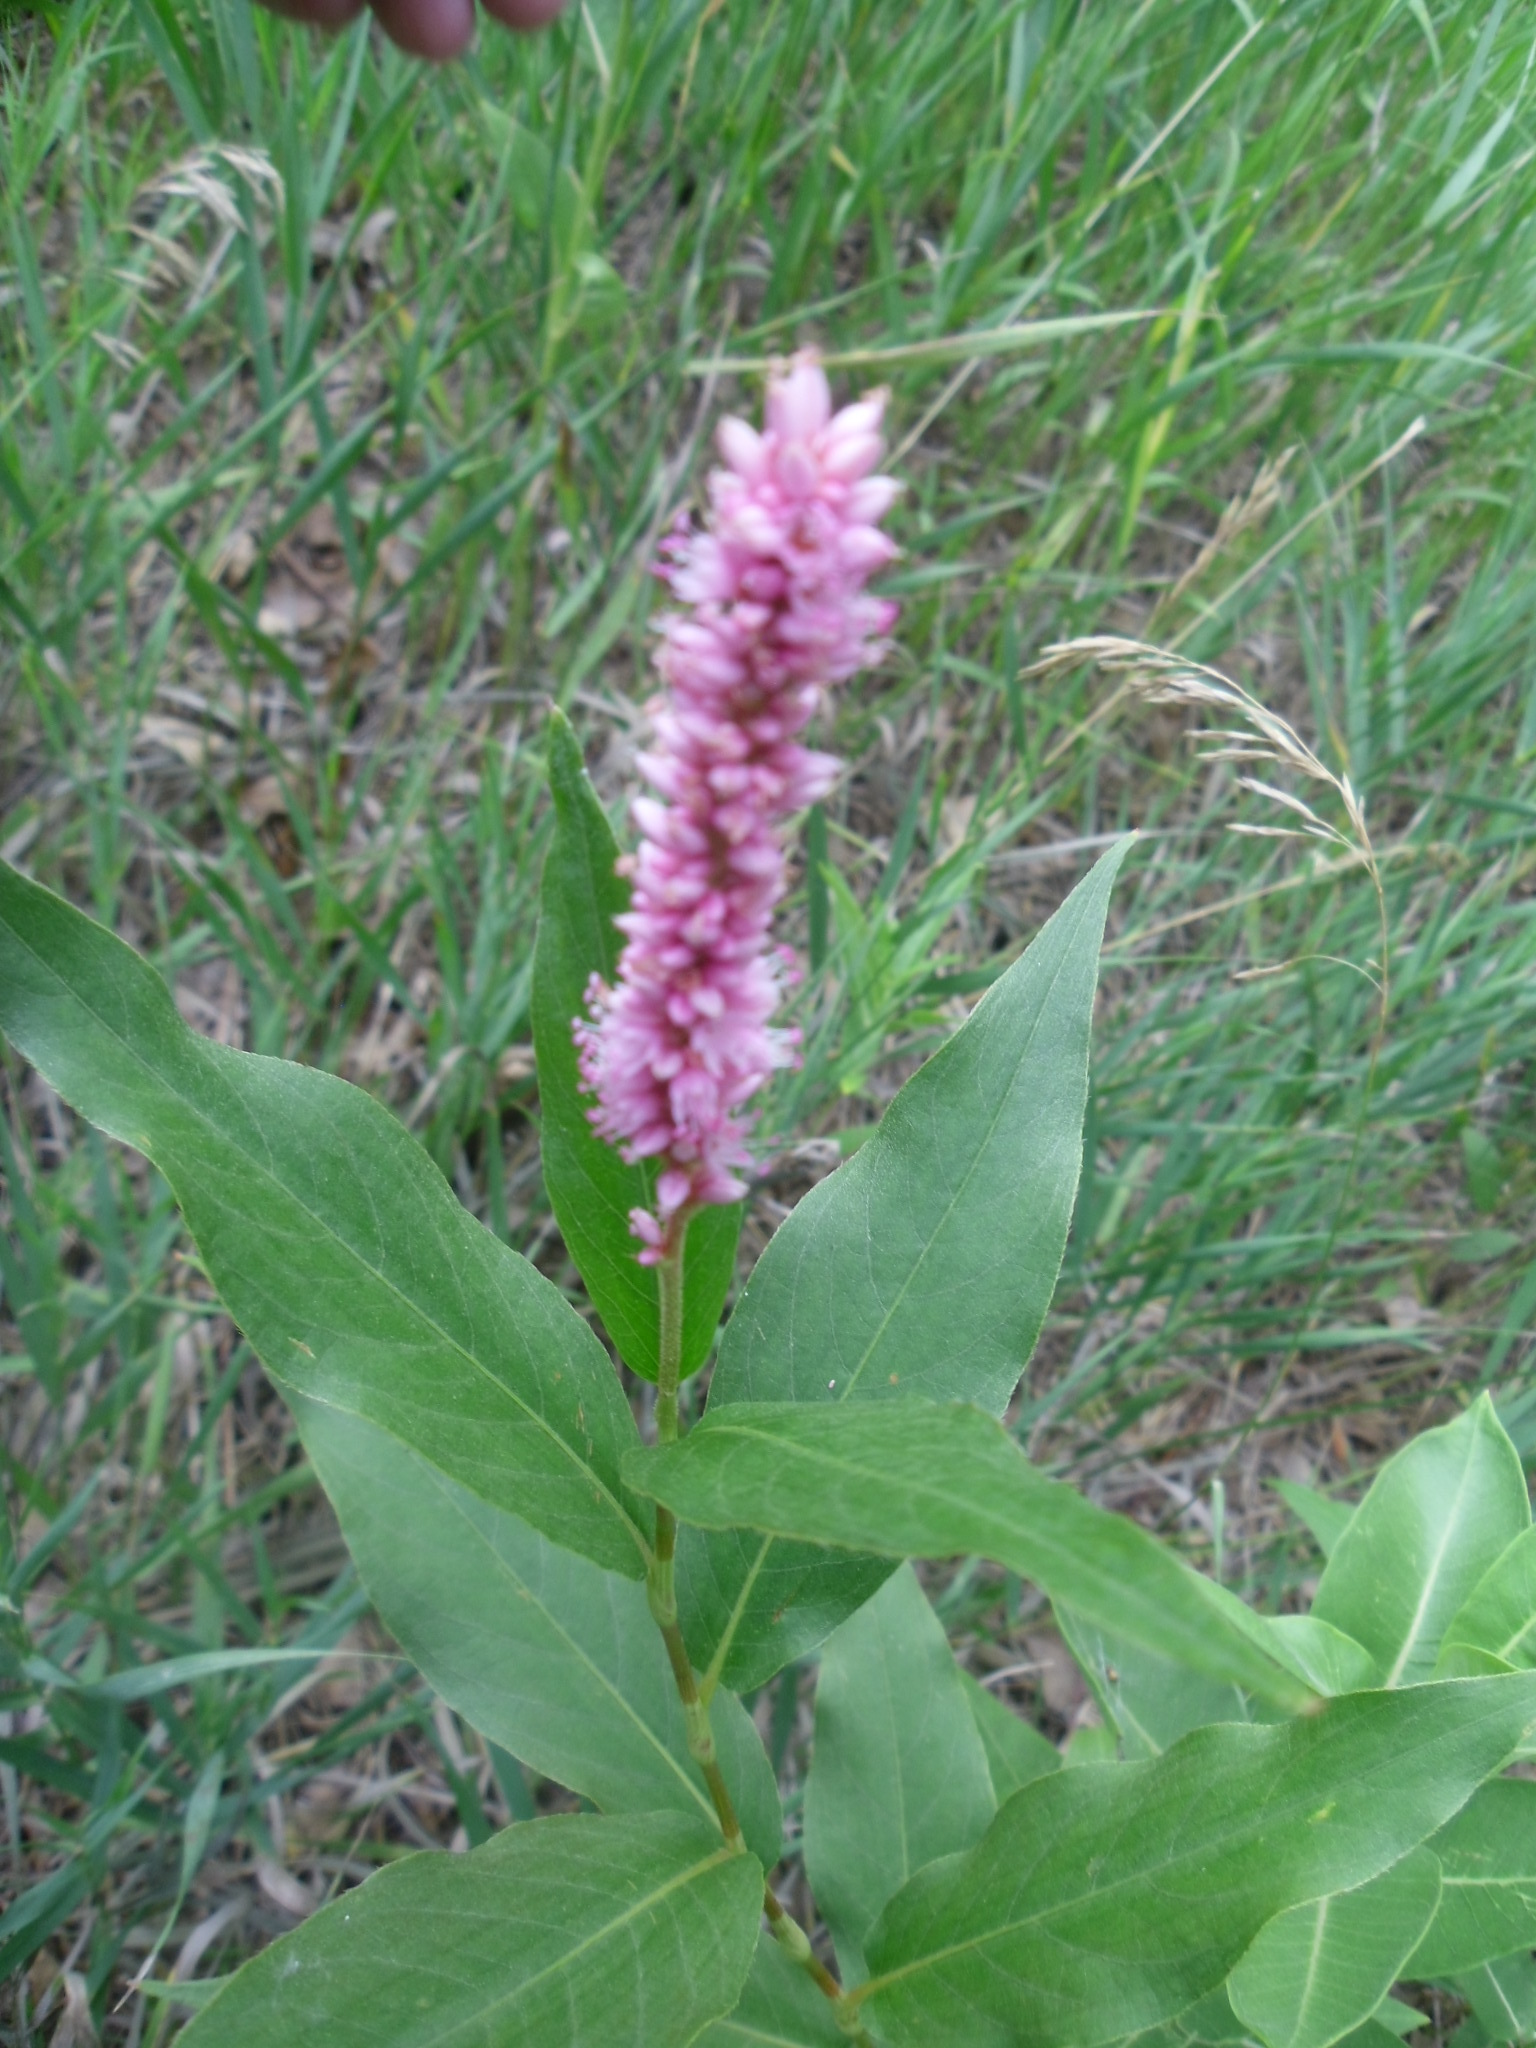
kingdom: Plantae
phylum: Tracheophyta
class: Magnoliopsida
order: Caryophyllales
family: Polygonaceae
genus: Persicaria
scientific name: Persicaria amphibia
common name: Amphibious bistort
